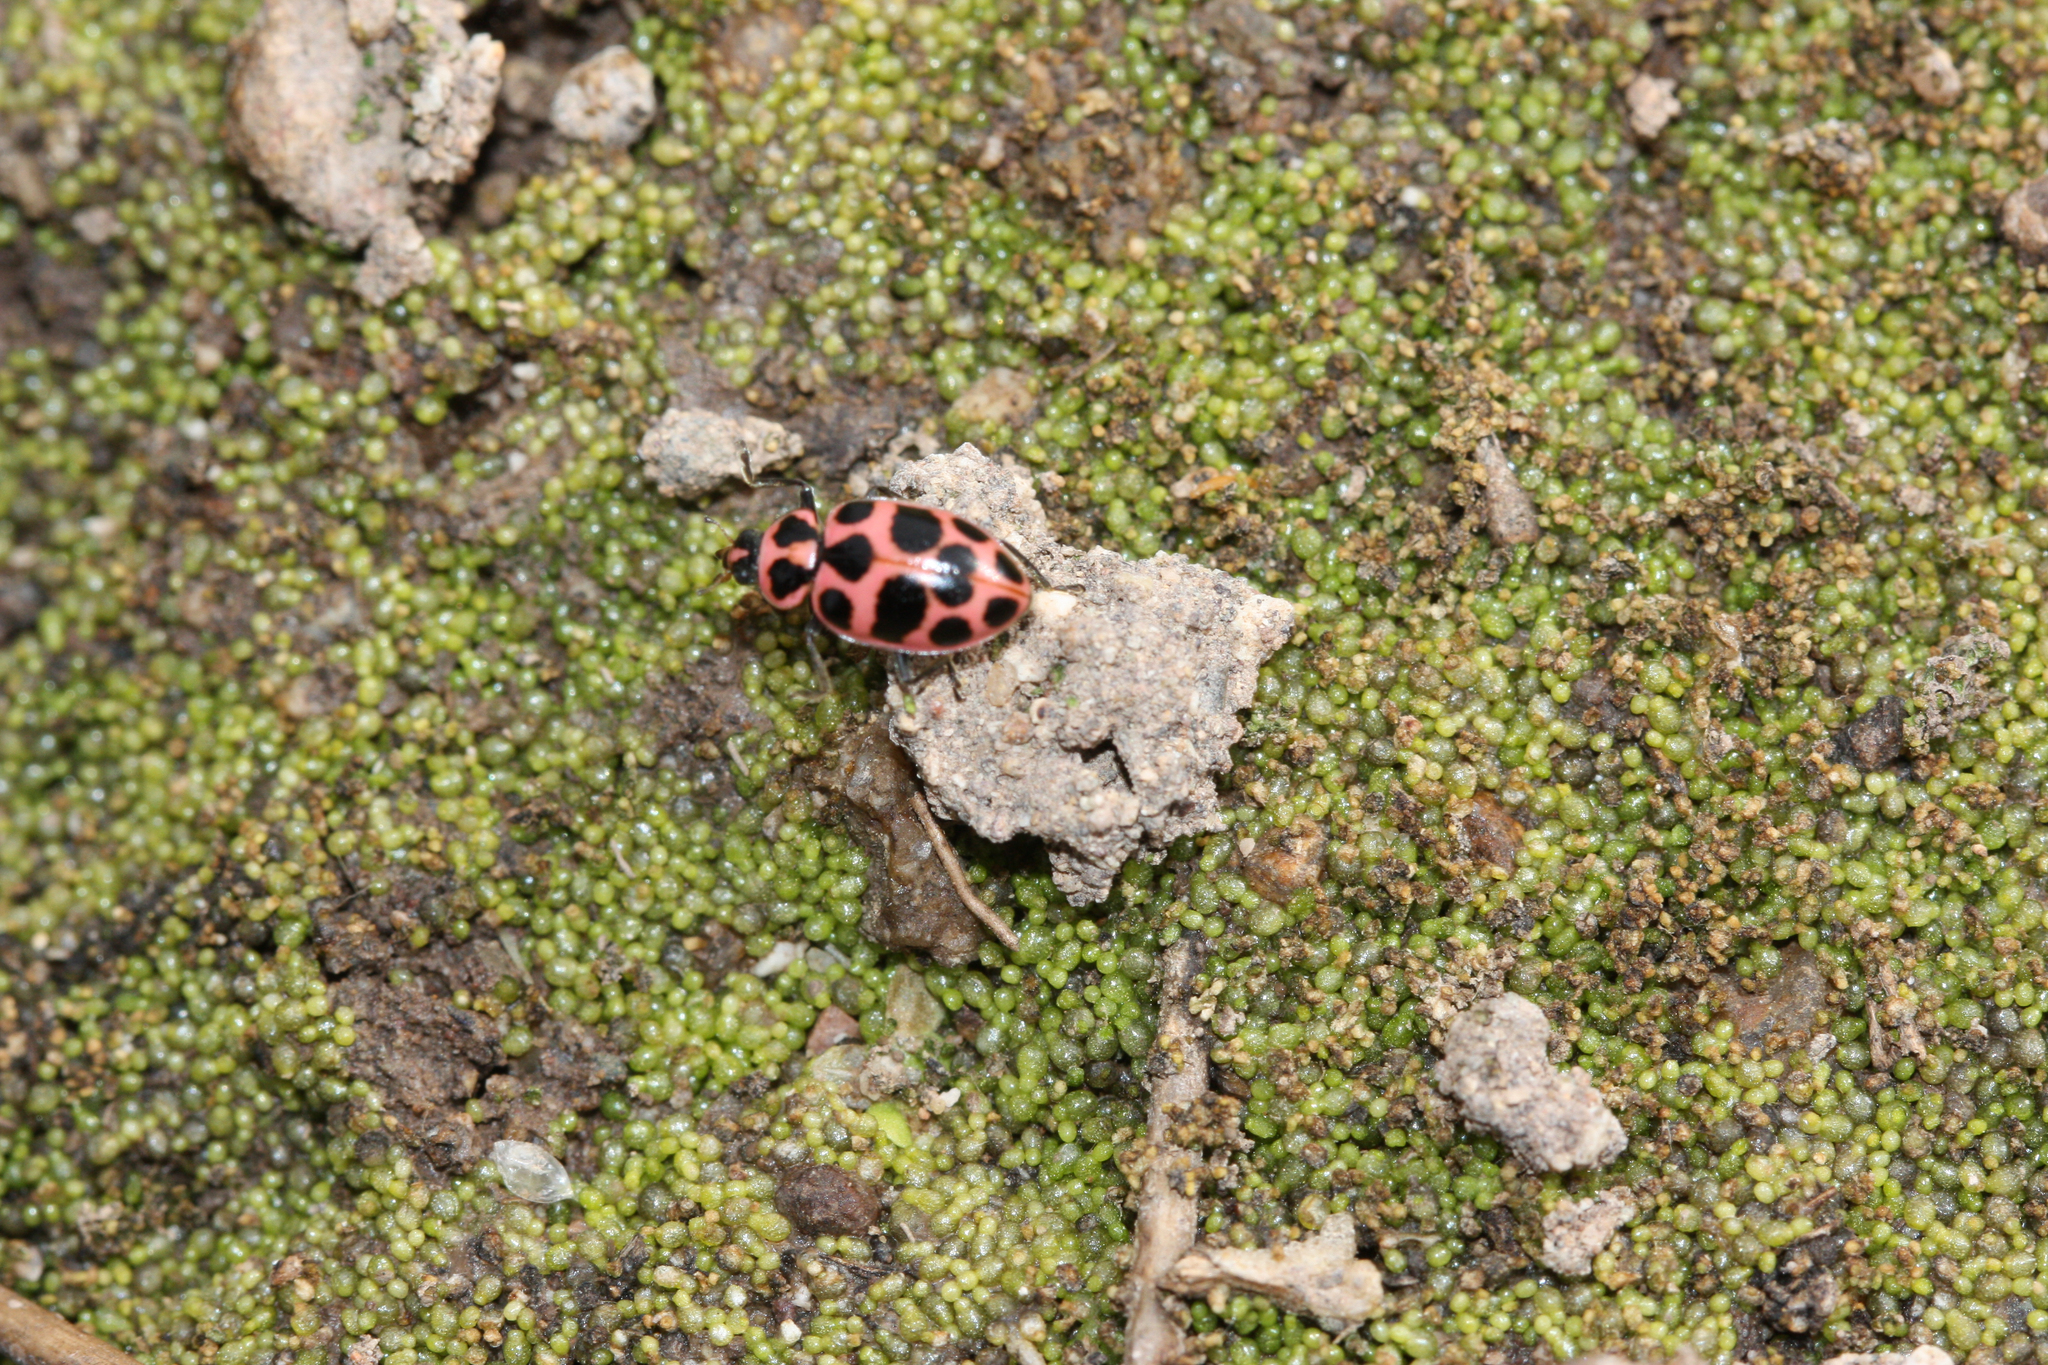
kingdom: Animalia
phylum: Arthropoda
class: Insecta
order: Coleoptera
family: Coccinellidae
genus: Coleomegilla
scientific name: Coleomegilla maculata
